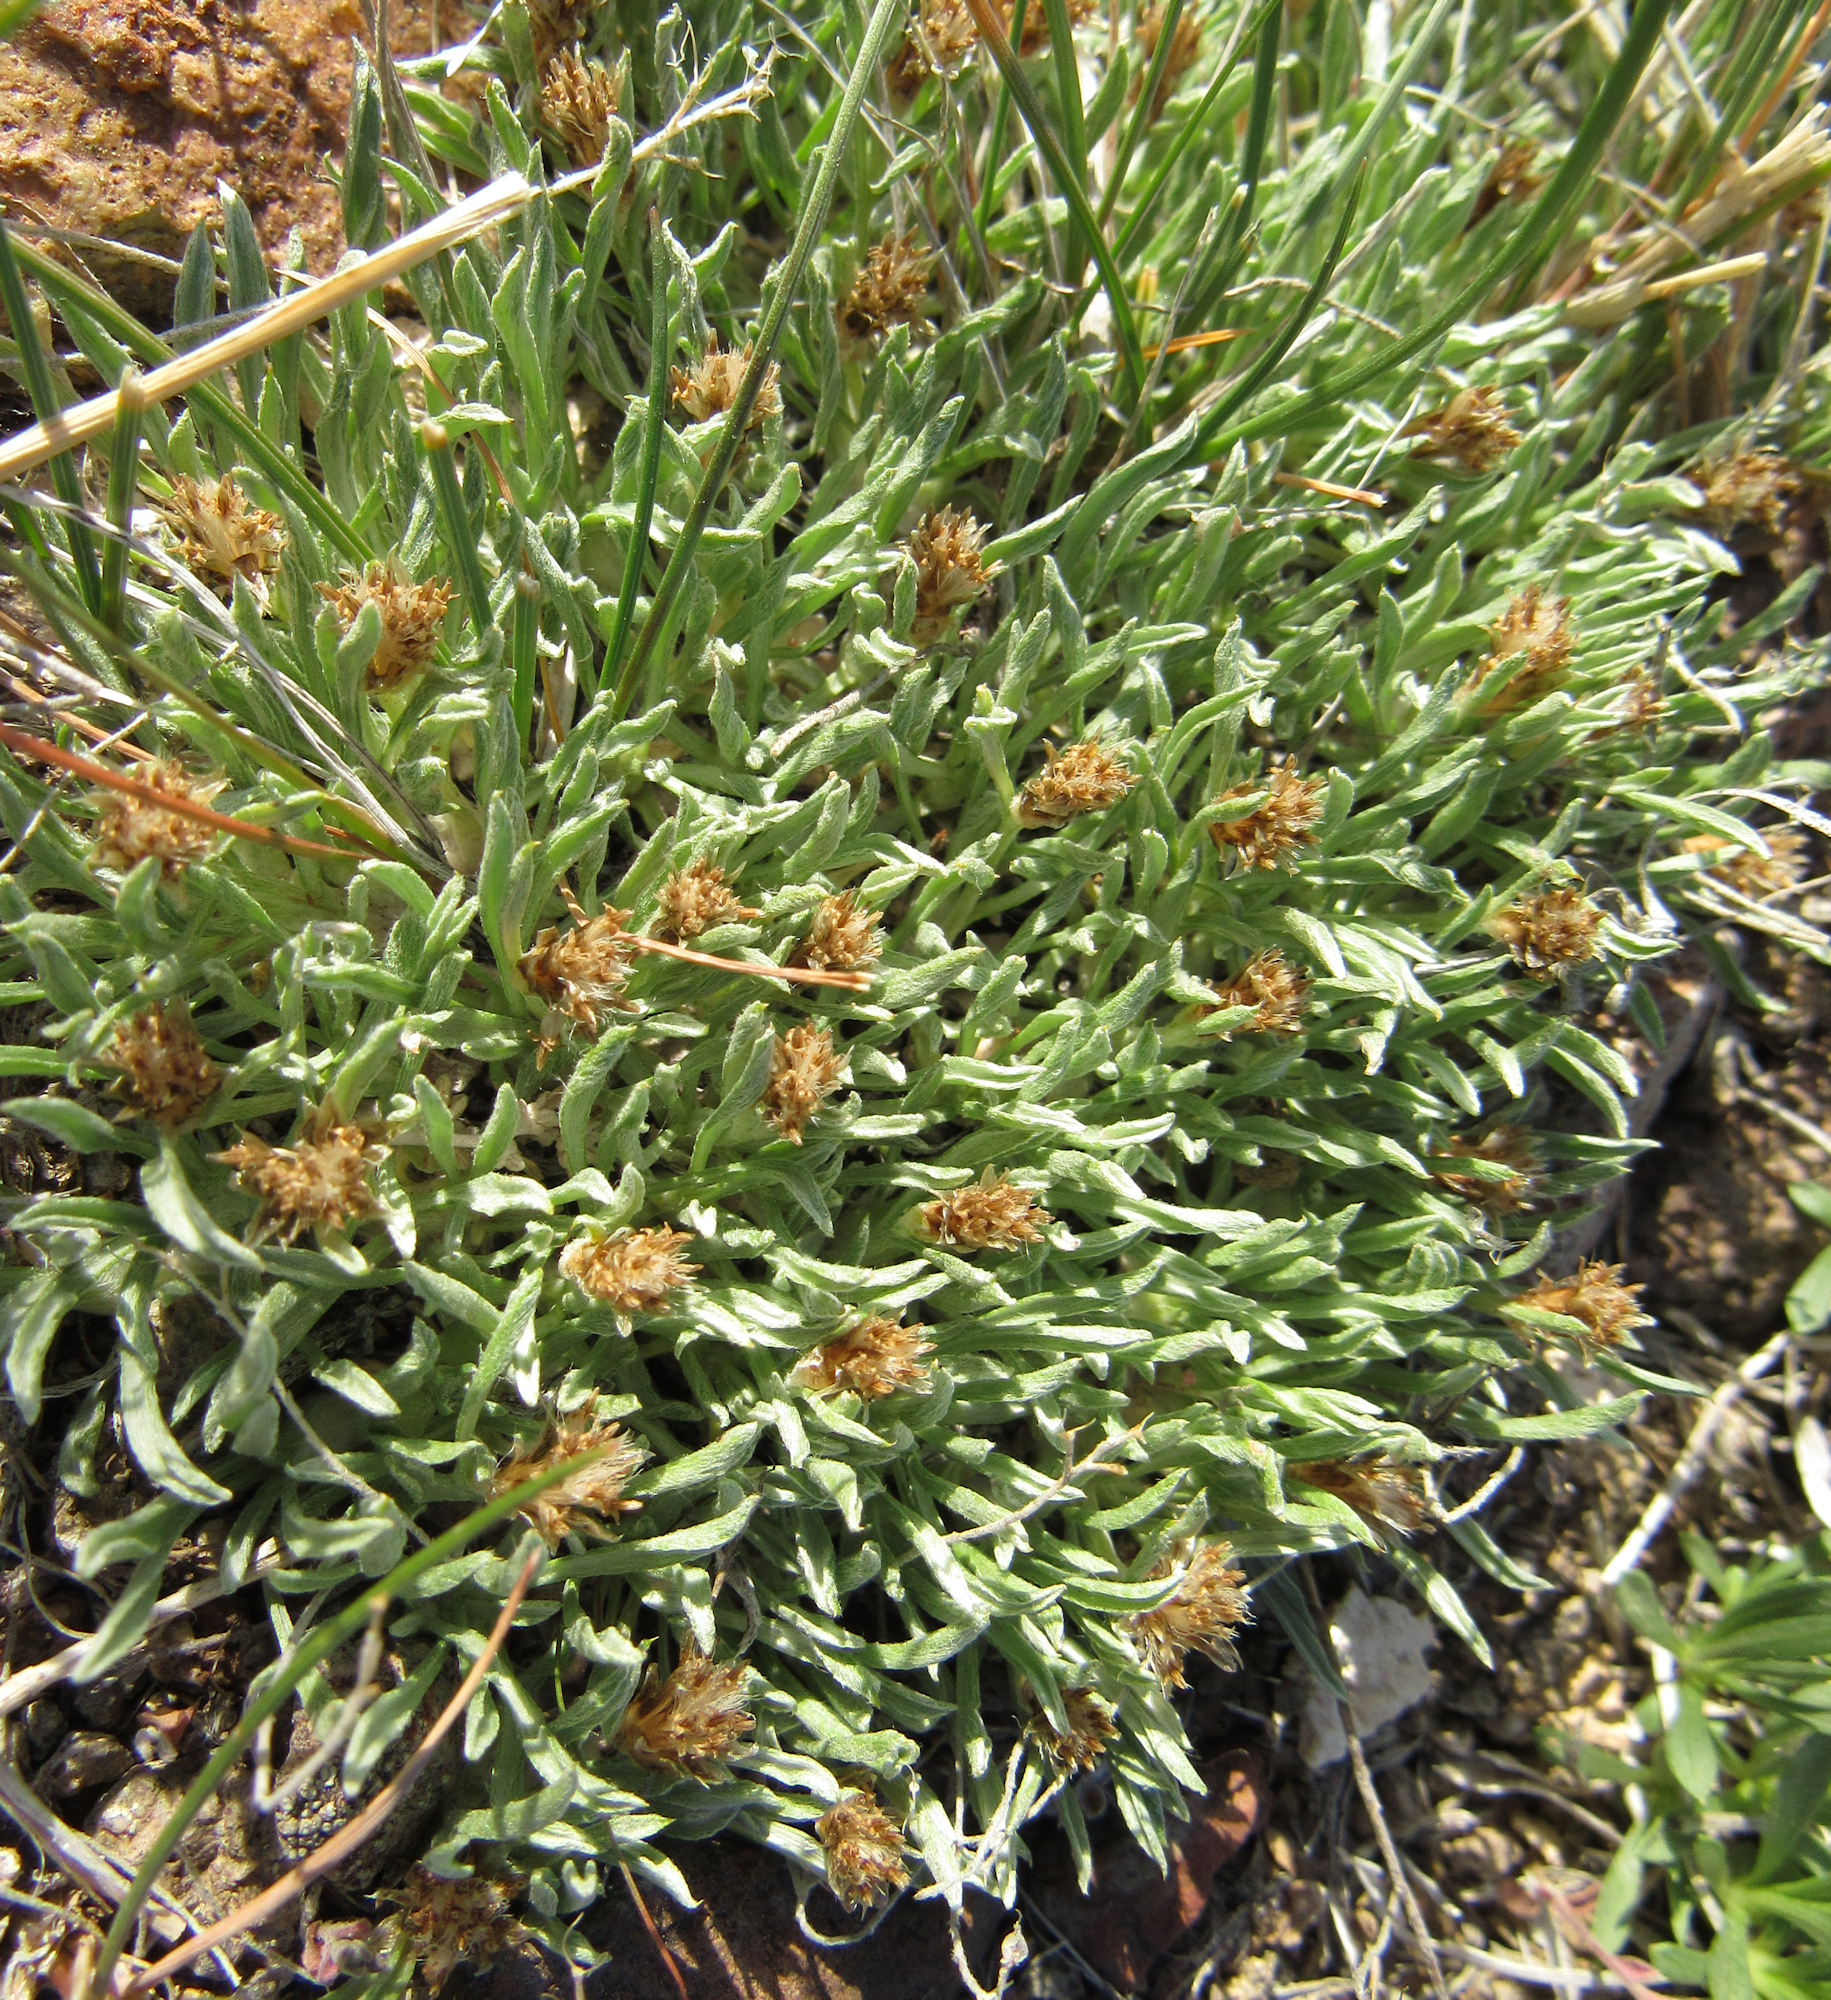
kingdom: Plantae
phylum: Tracheophyta
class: Magnoliopsida
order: Asterales
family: Asteraceae
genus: Antennaria
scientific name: Antennaria dimorpha
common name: Cushion pussytoes
